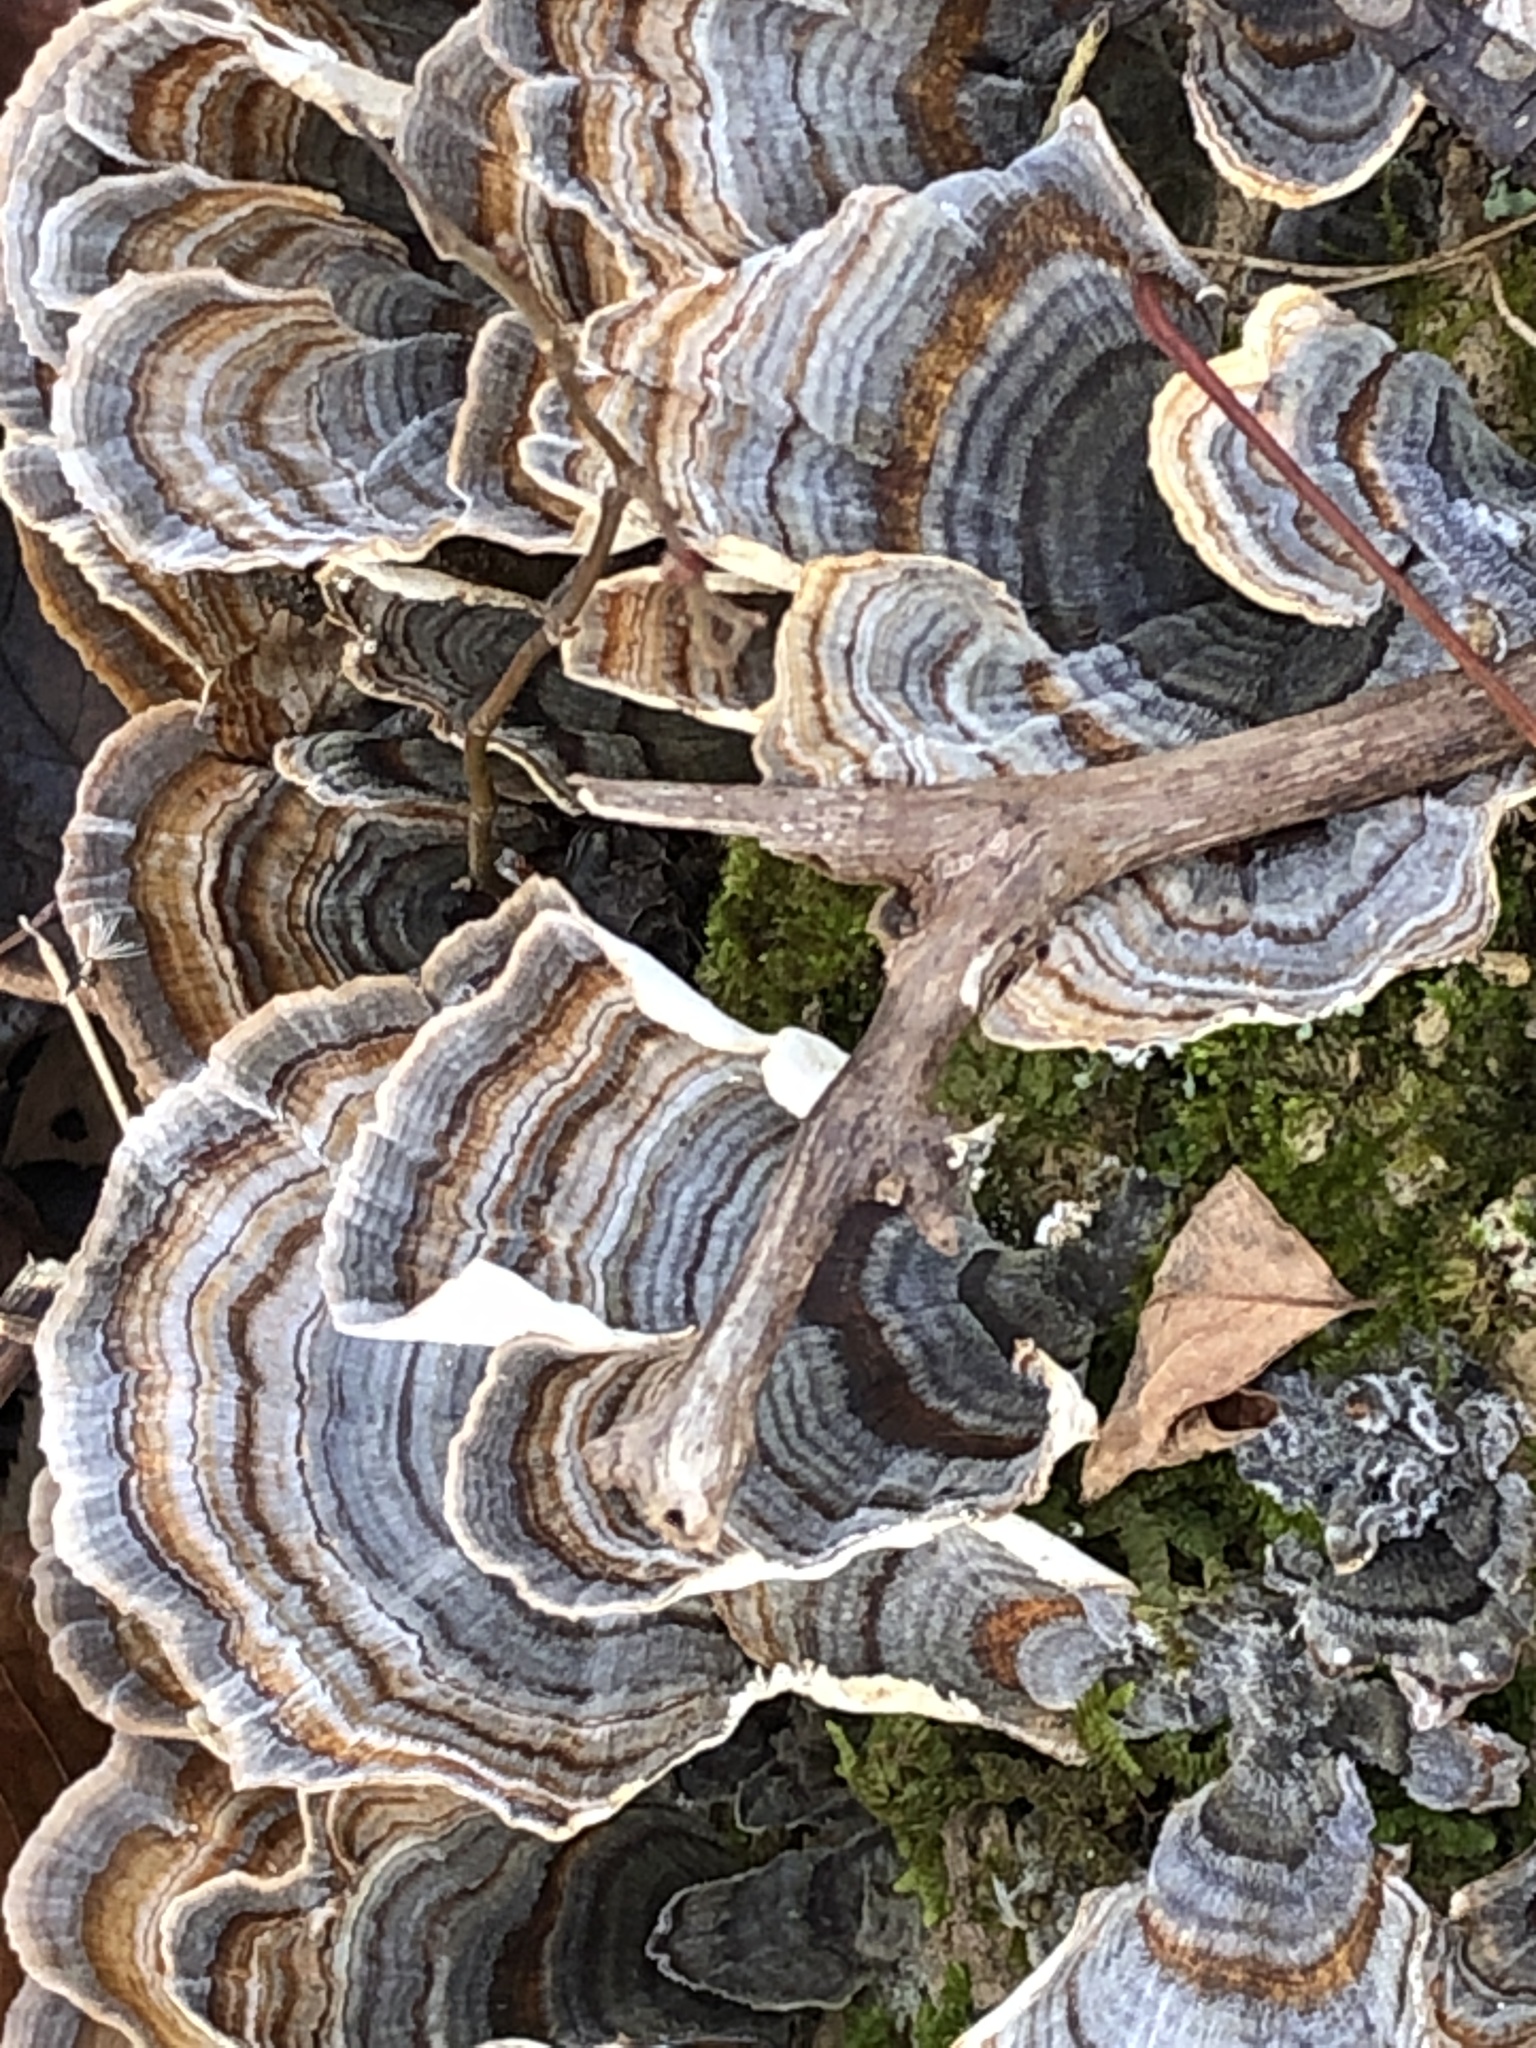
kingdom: Fungi
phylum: Basidiomycota
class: Agaricomycetes
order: Polyporales
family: Polyporaceae
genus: Trametes
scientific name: Trametes versicolor
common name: Turkeytail
